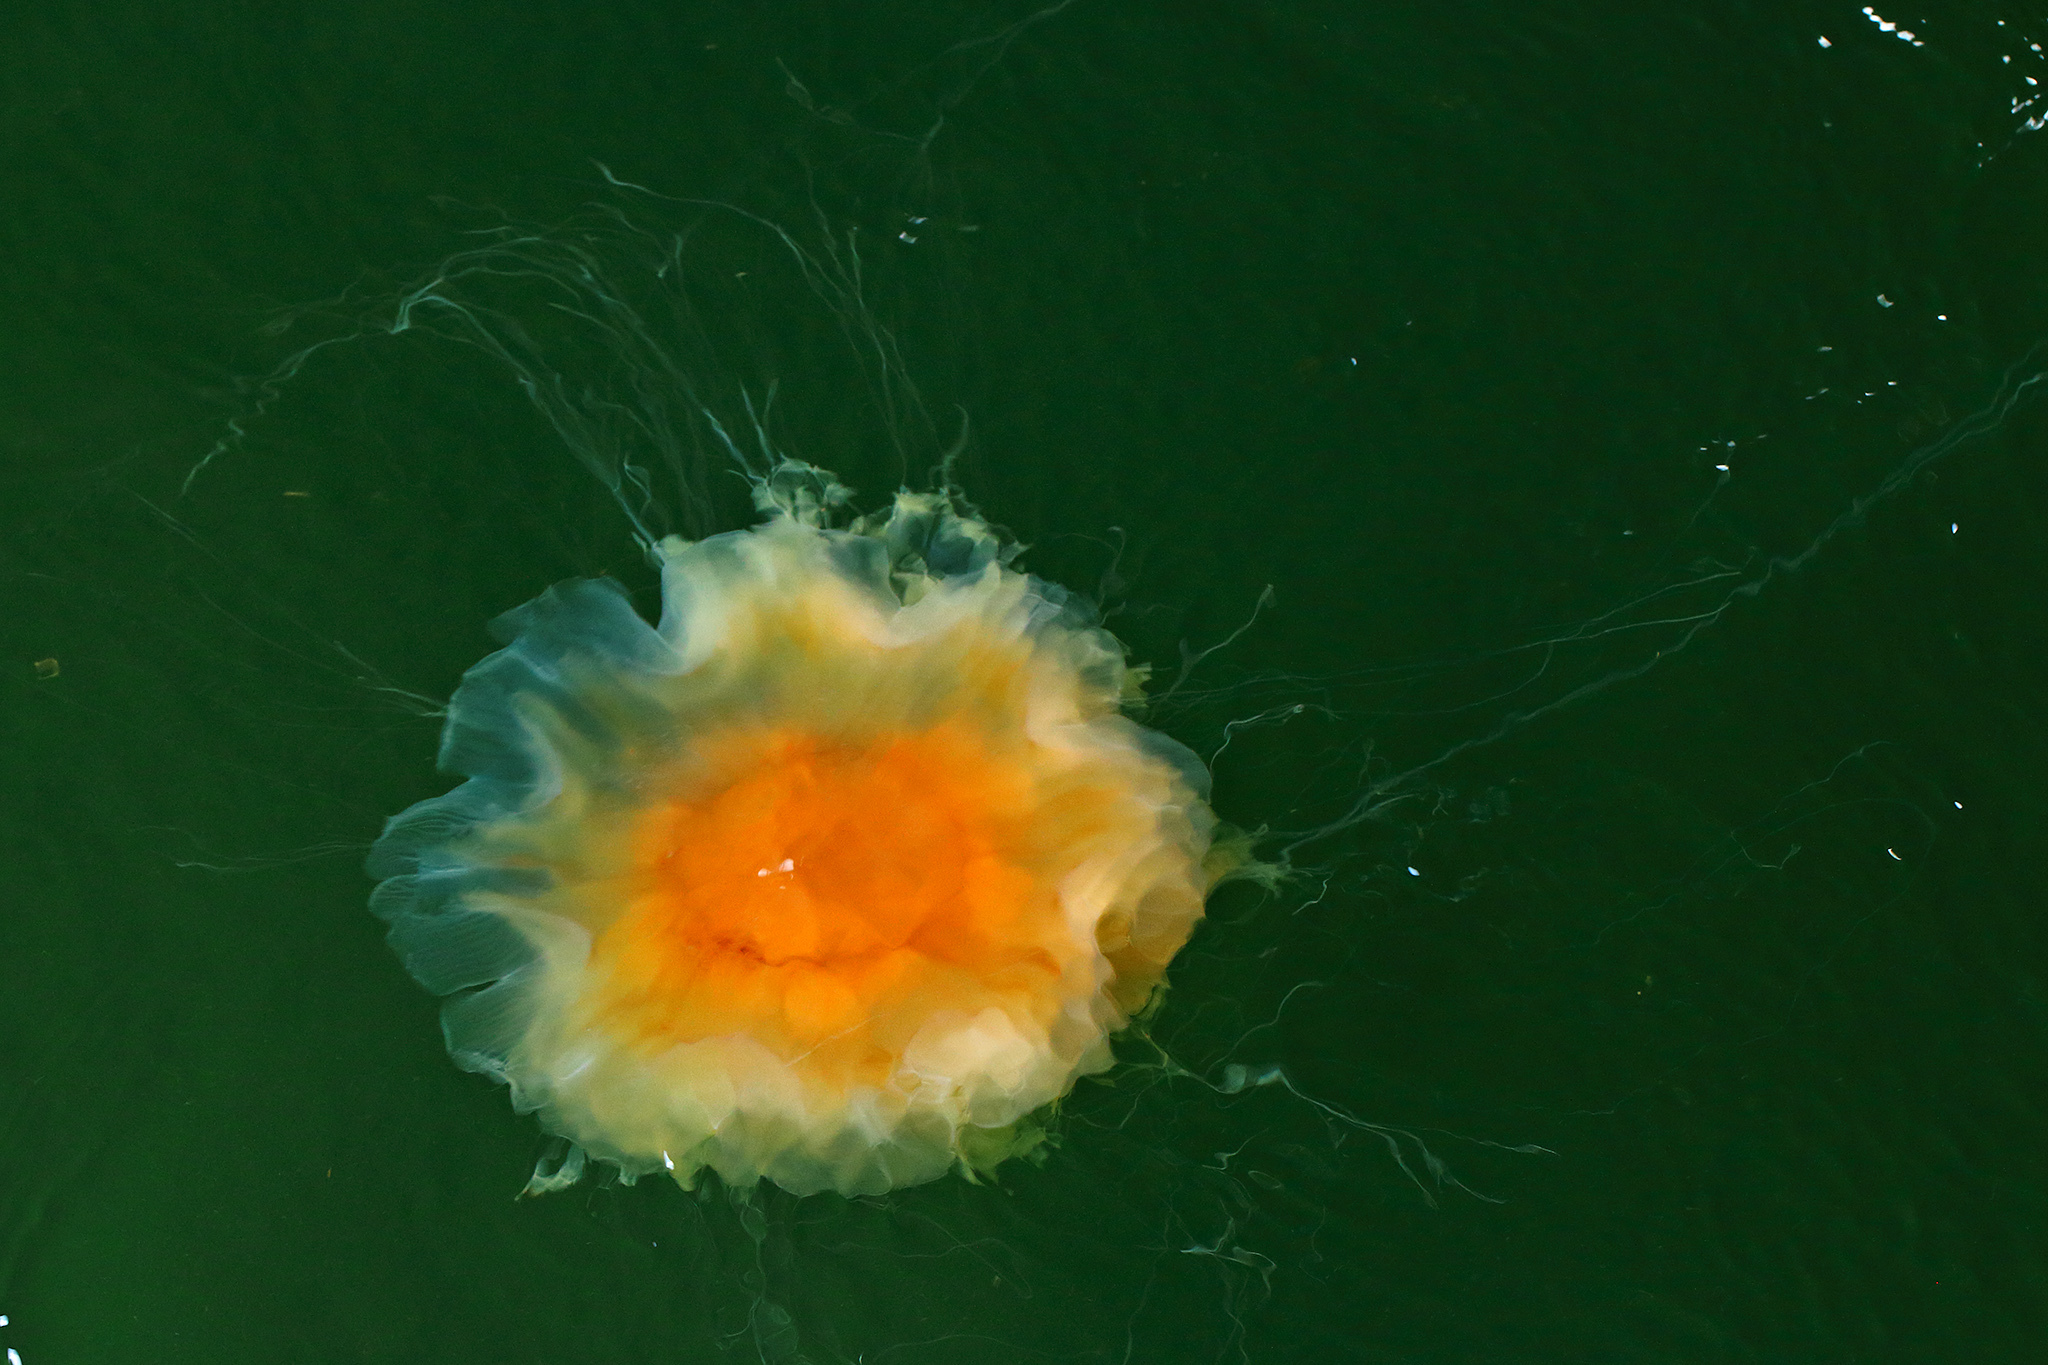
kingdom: Animalia
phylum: Cnidaria
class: Scyphozoa
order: Semaeostomeae
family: Cyaneidae
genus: Cyanea
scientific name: Cyanea capillata
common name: Lion's mane jellyfish
